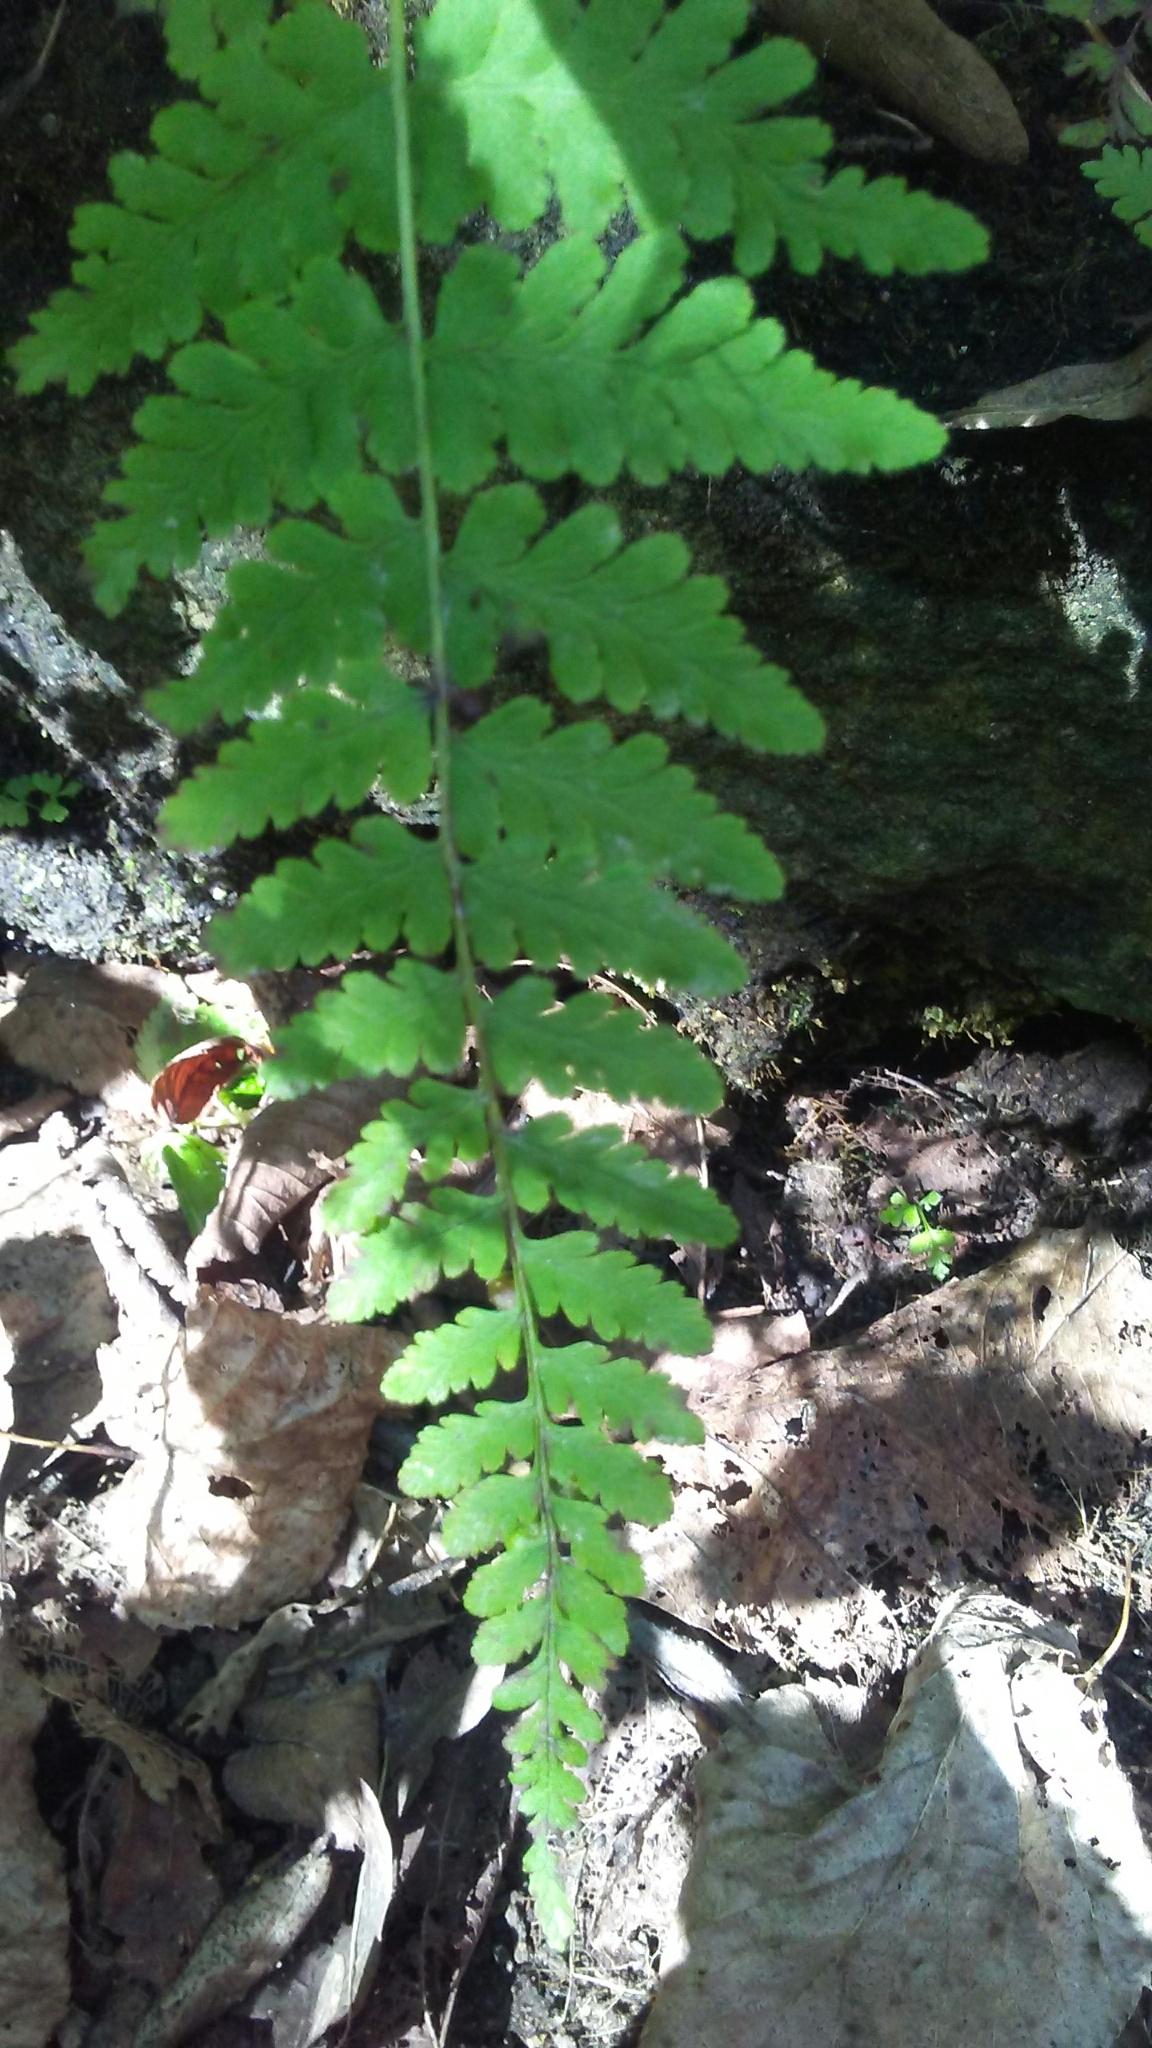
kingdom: Plantae
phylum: Tracheophyta
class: Polypodiopsida
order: Polypodiales
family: Cystopteridaceae
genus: Cystopteris
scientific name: Cystopteris bulbifera
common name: Bulblet bladder fern
